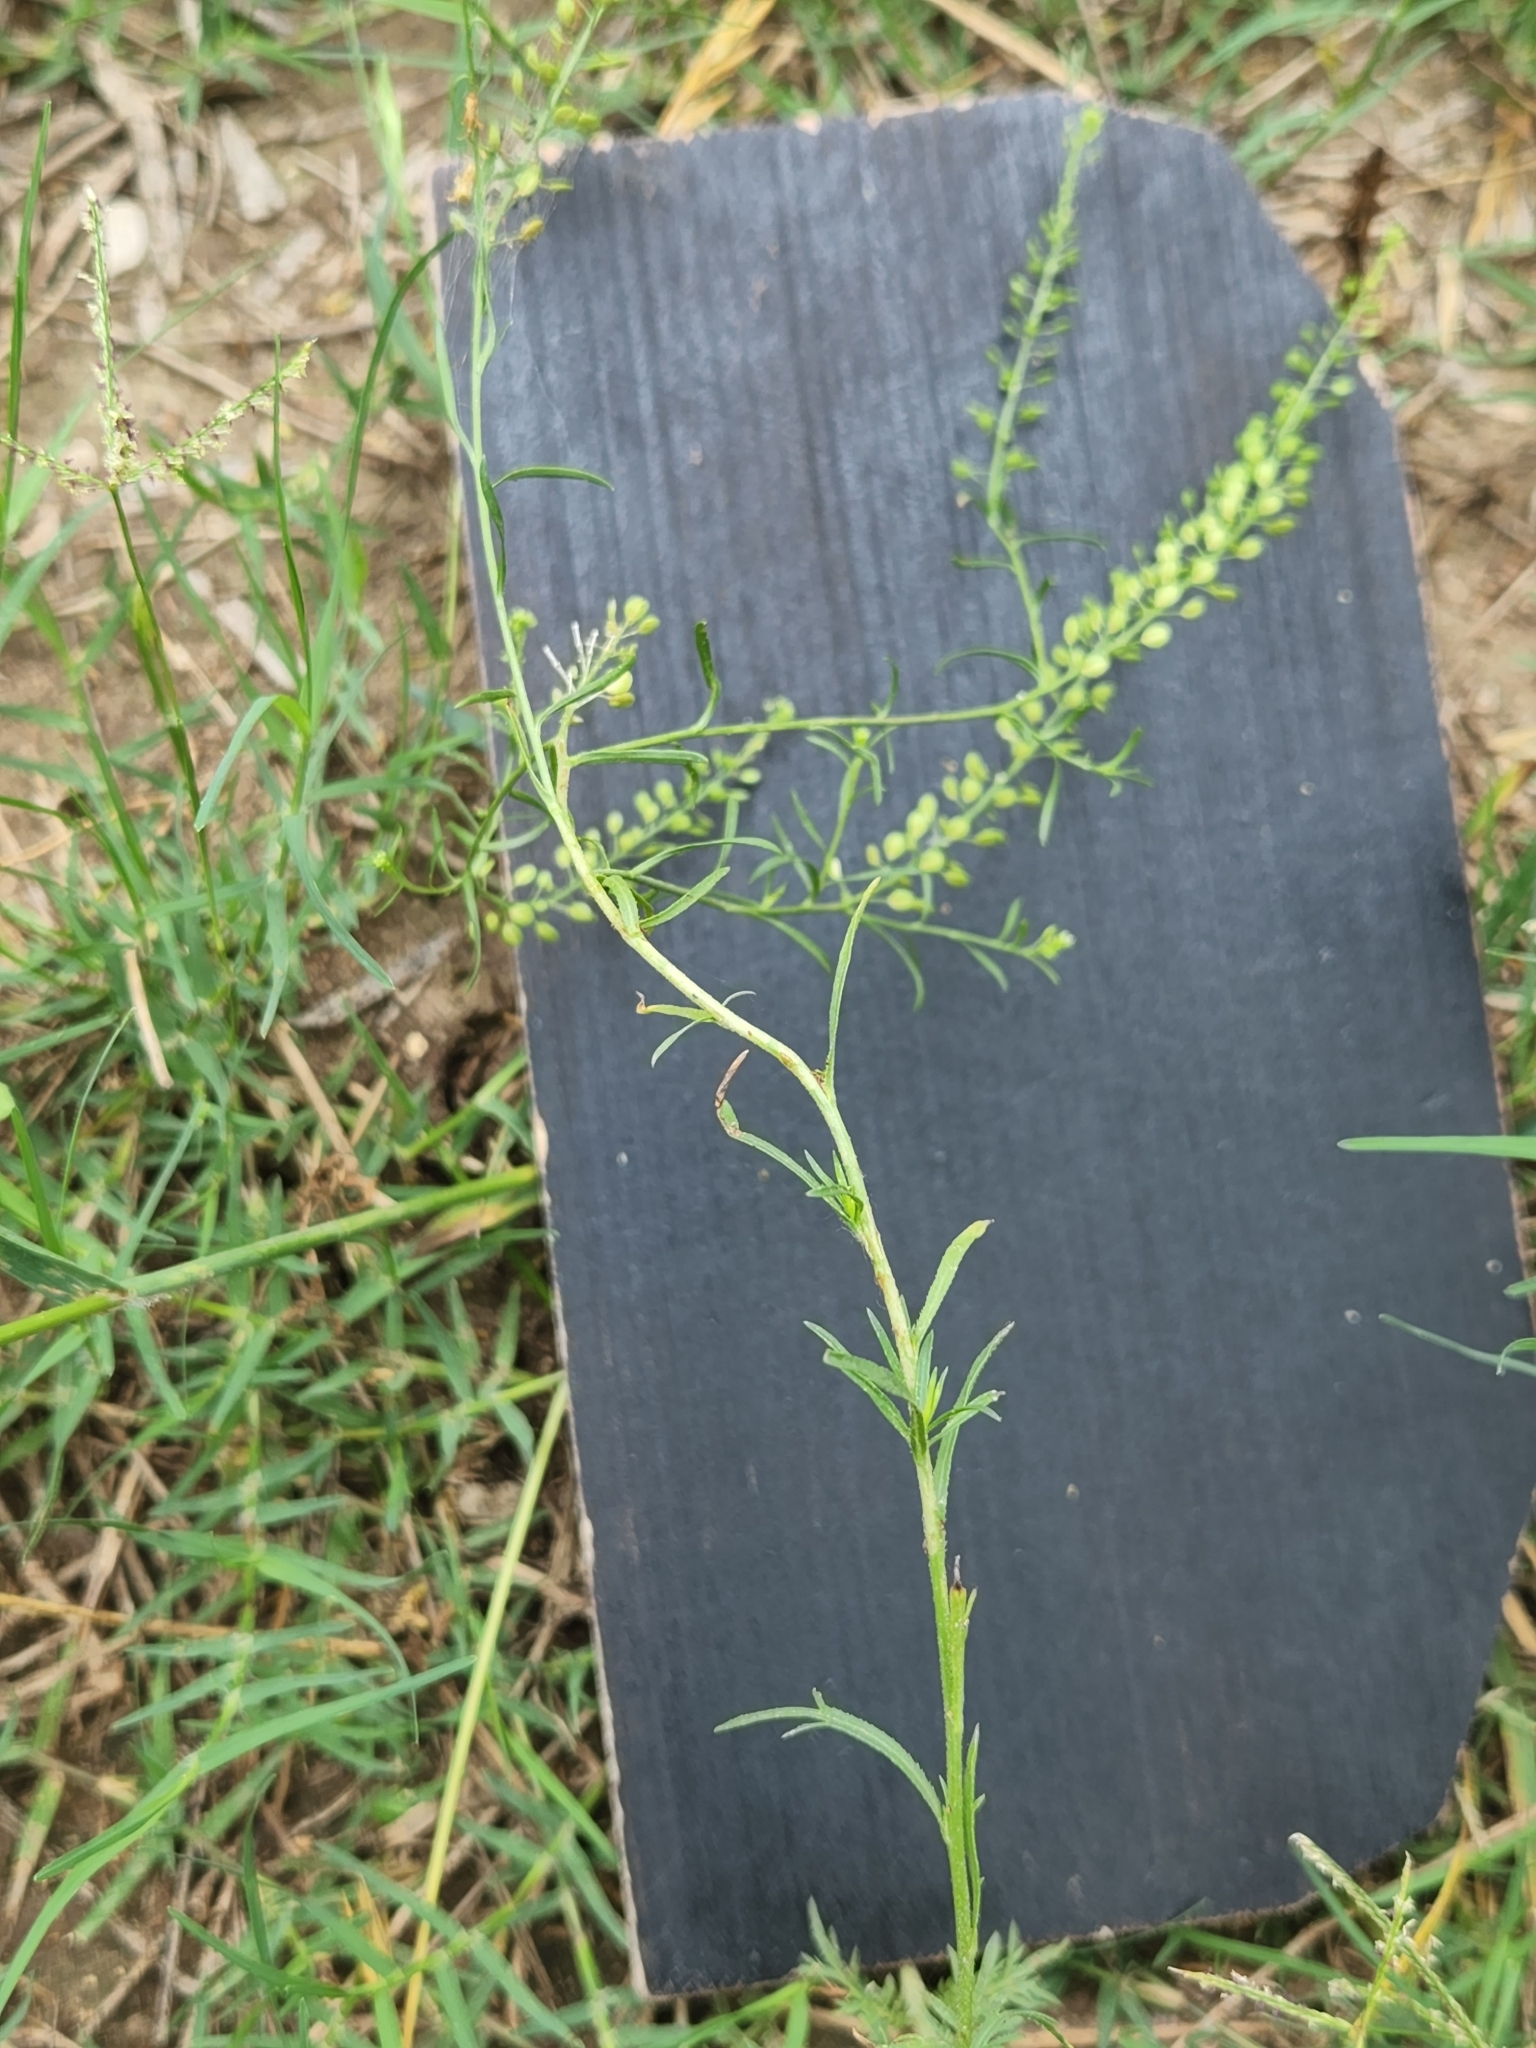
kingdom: Plantae
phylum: Tracheophyta
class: Magnoliopsida
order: Brassicales
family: Brassicaceae
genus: Lepidium
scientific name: Lepidium densiflorum
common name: Miner's pepperwort
